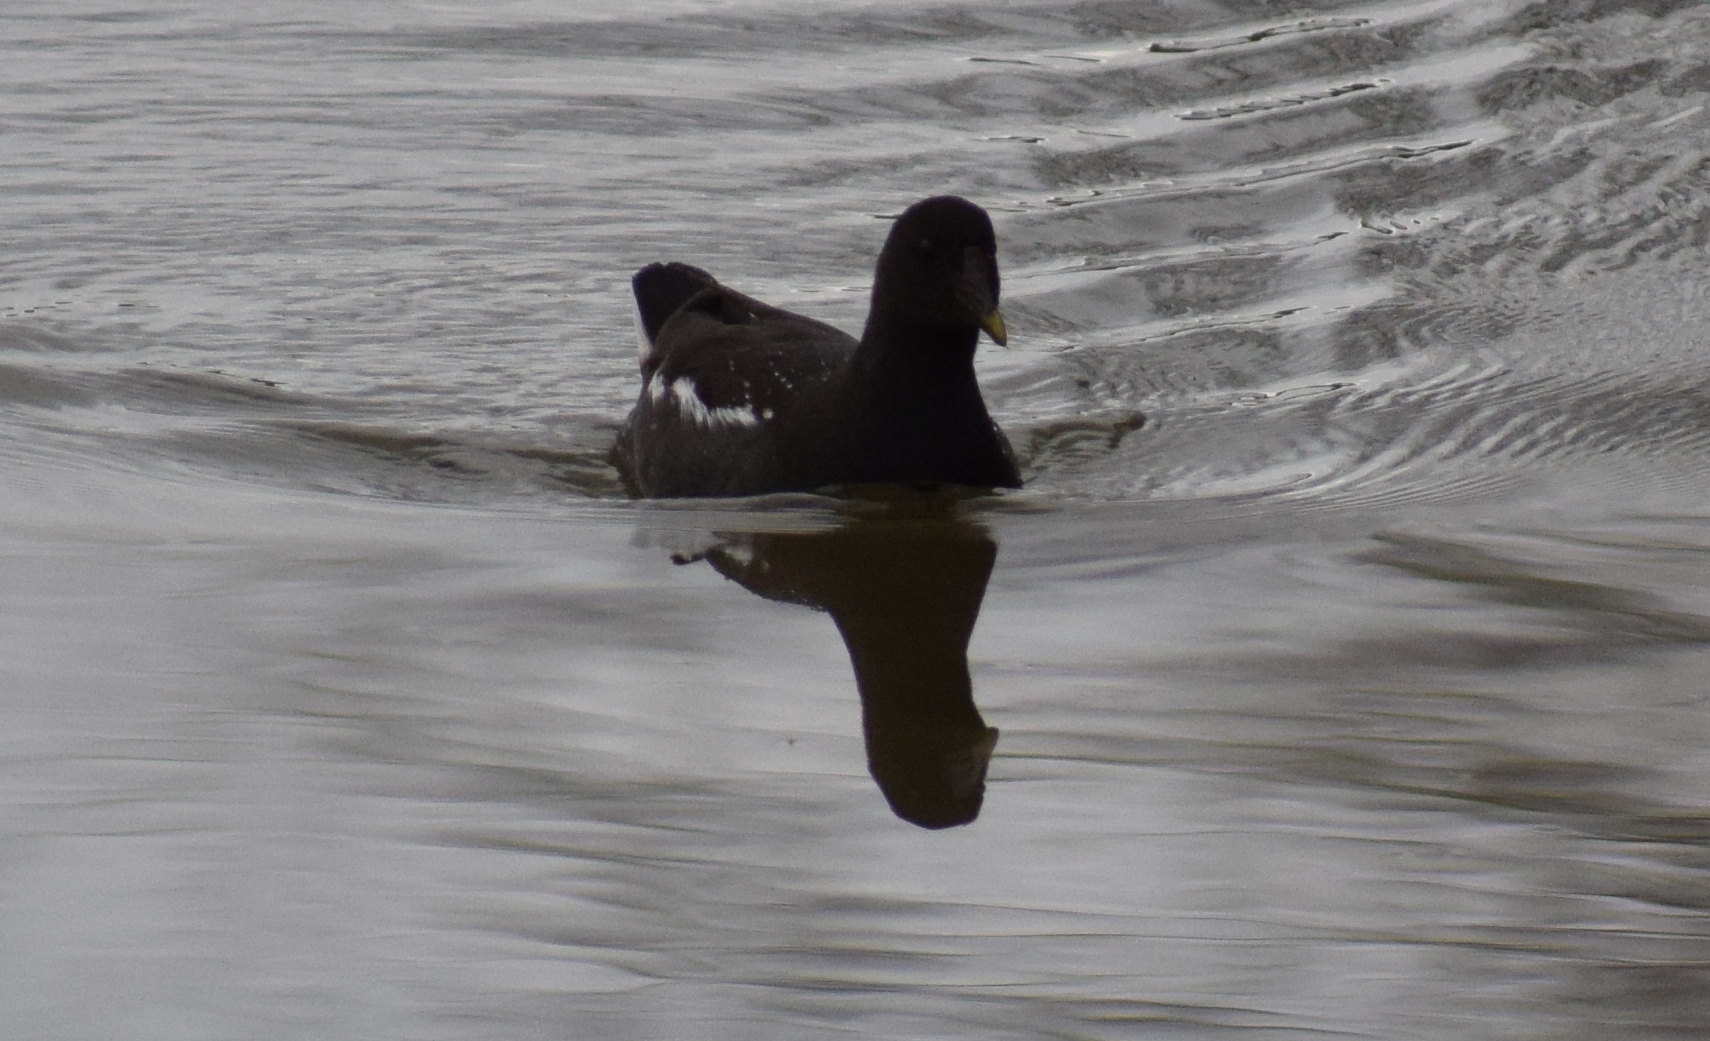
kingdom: Animalia
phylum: Chordata
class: Aves
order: Gruiformes
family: Rallidae
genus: Gallinula
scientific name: Gallinula chloropus
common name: Common moorhen
